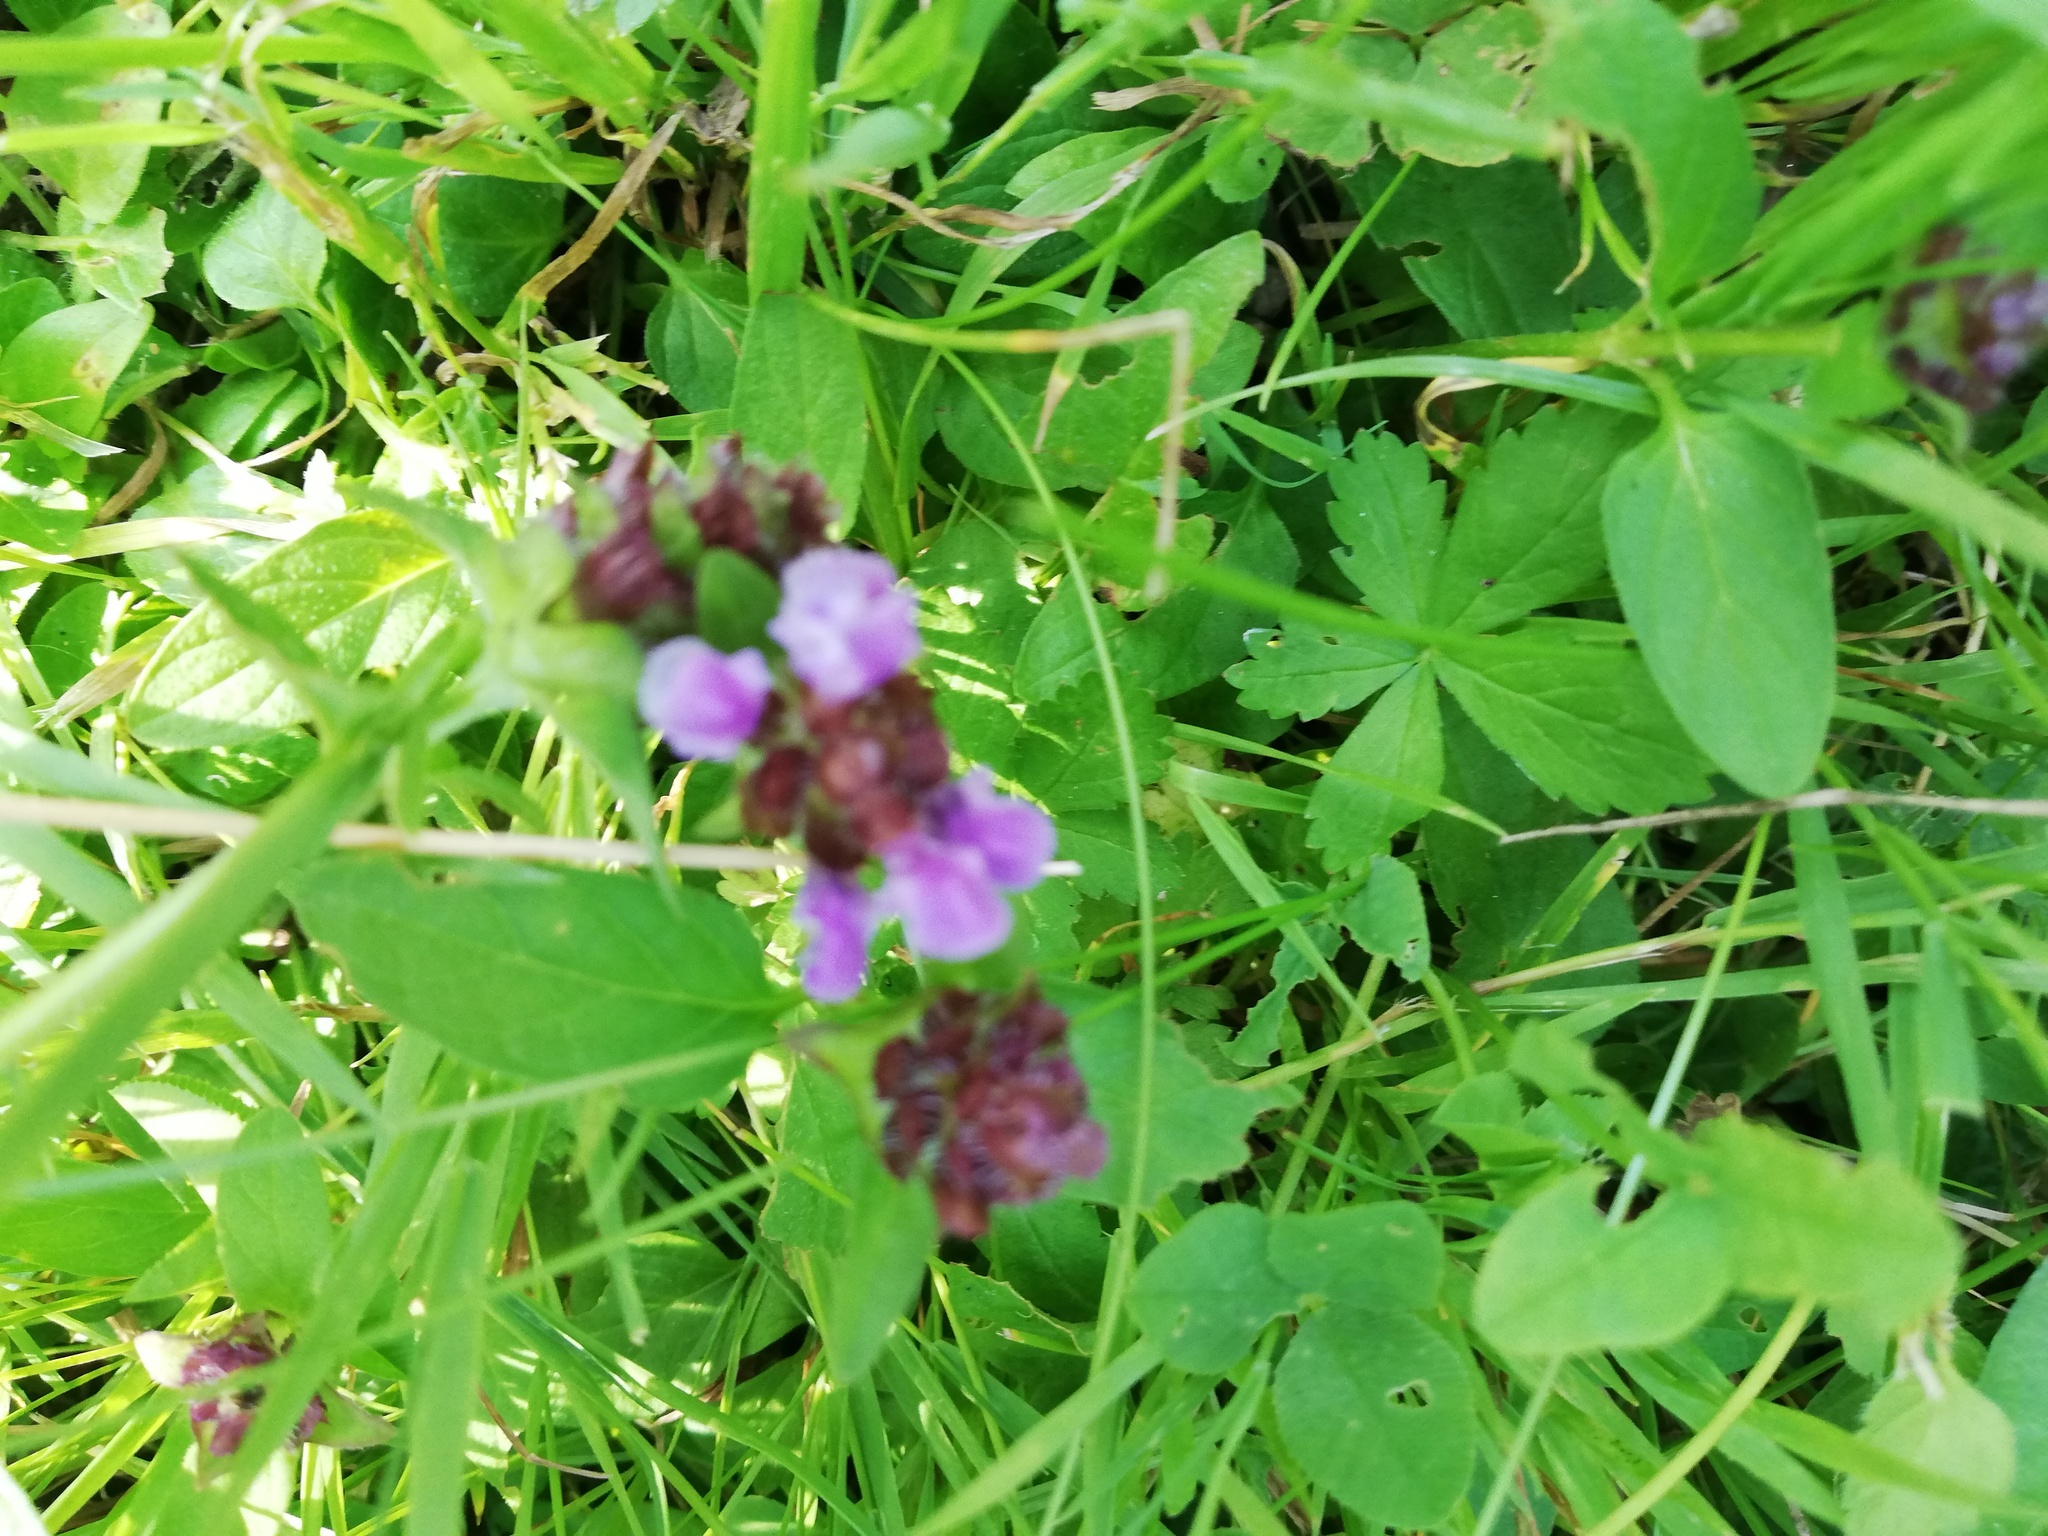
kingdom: Plantae
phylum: Tracheophyta
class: Magnoliopsida
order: Lamiales
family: Lamiaceae
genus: Prunella
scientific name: Prunella vulgaris
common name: Heal-all
